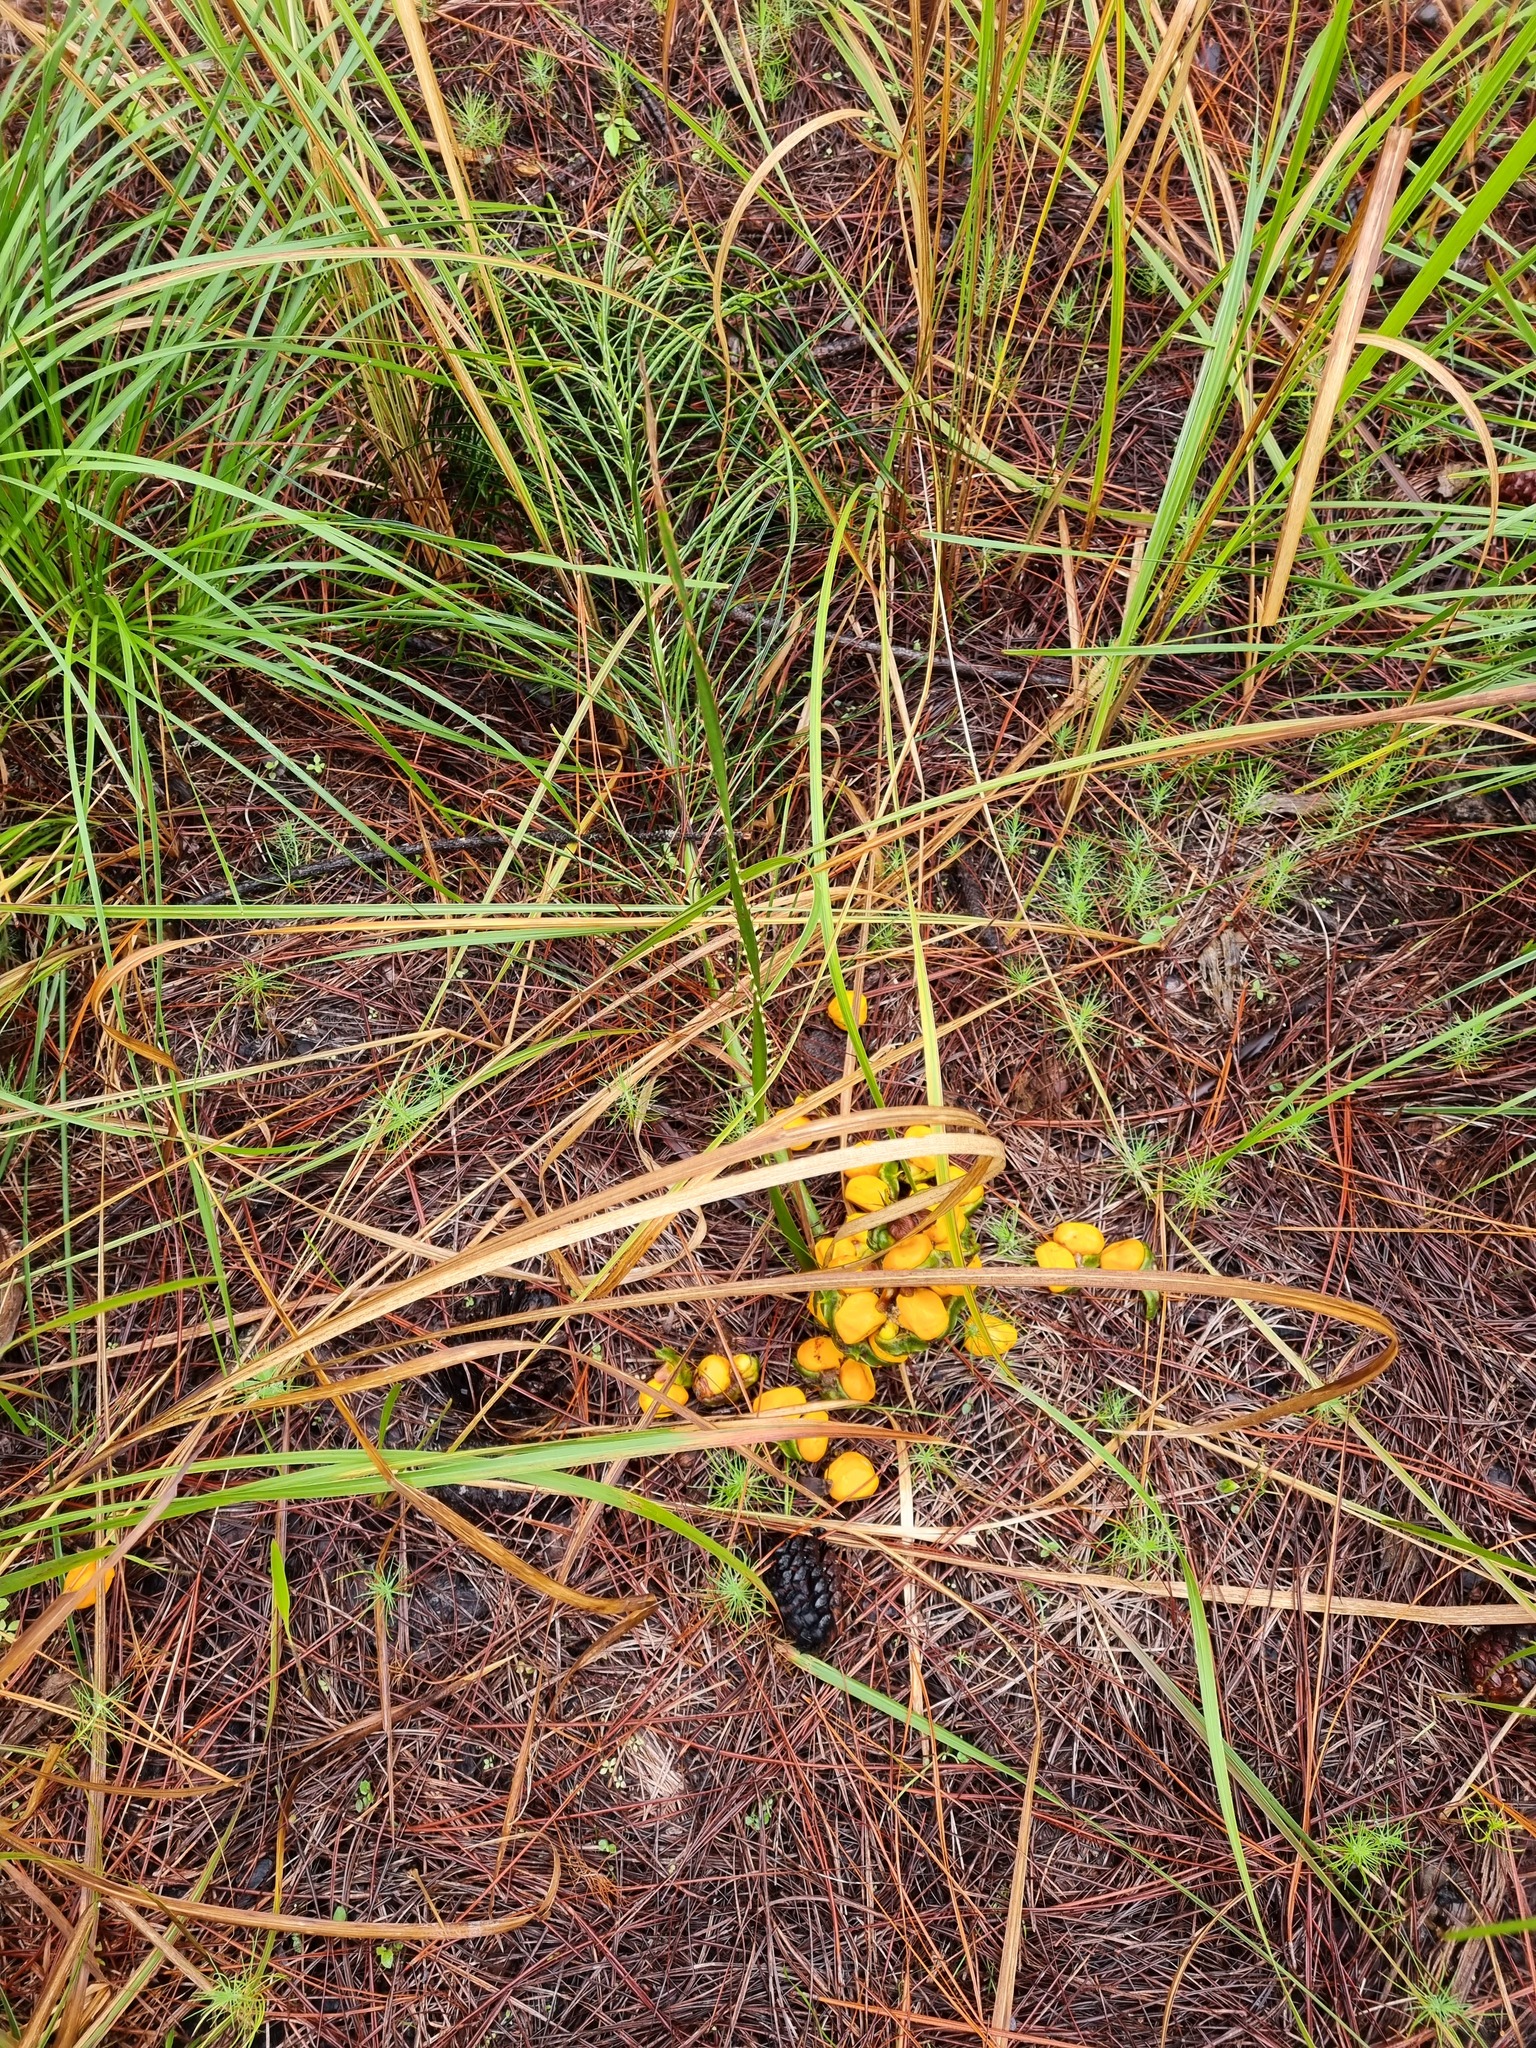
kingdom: Plantae
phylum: Tracheophyta
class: Cycadopsida
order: Cycadales
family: Zamiaceae
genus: Macrozamia
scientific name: Macrozamia pauli-guilielmi
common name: Pineapple zamia
